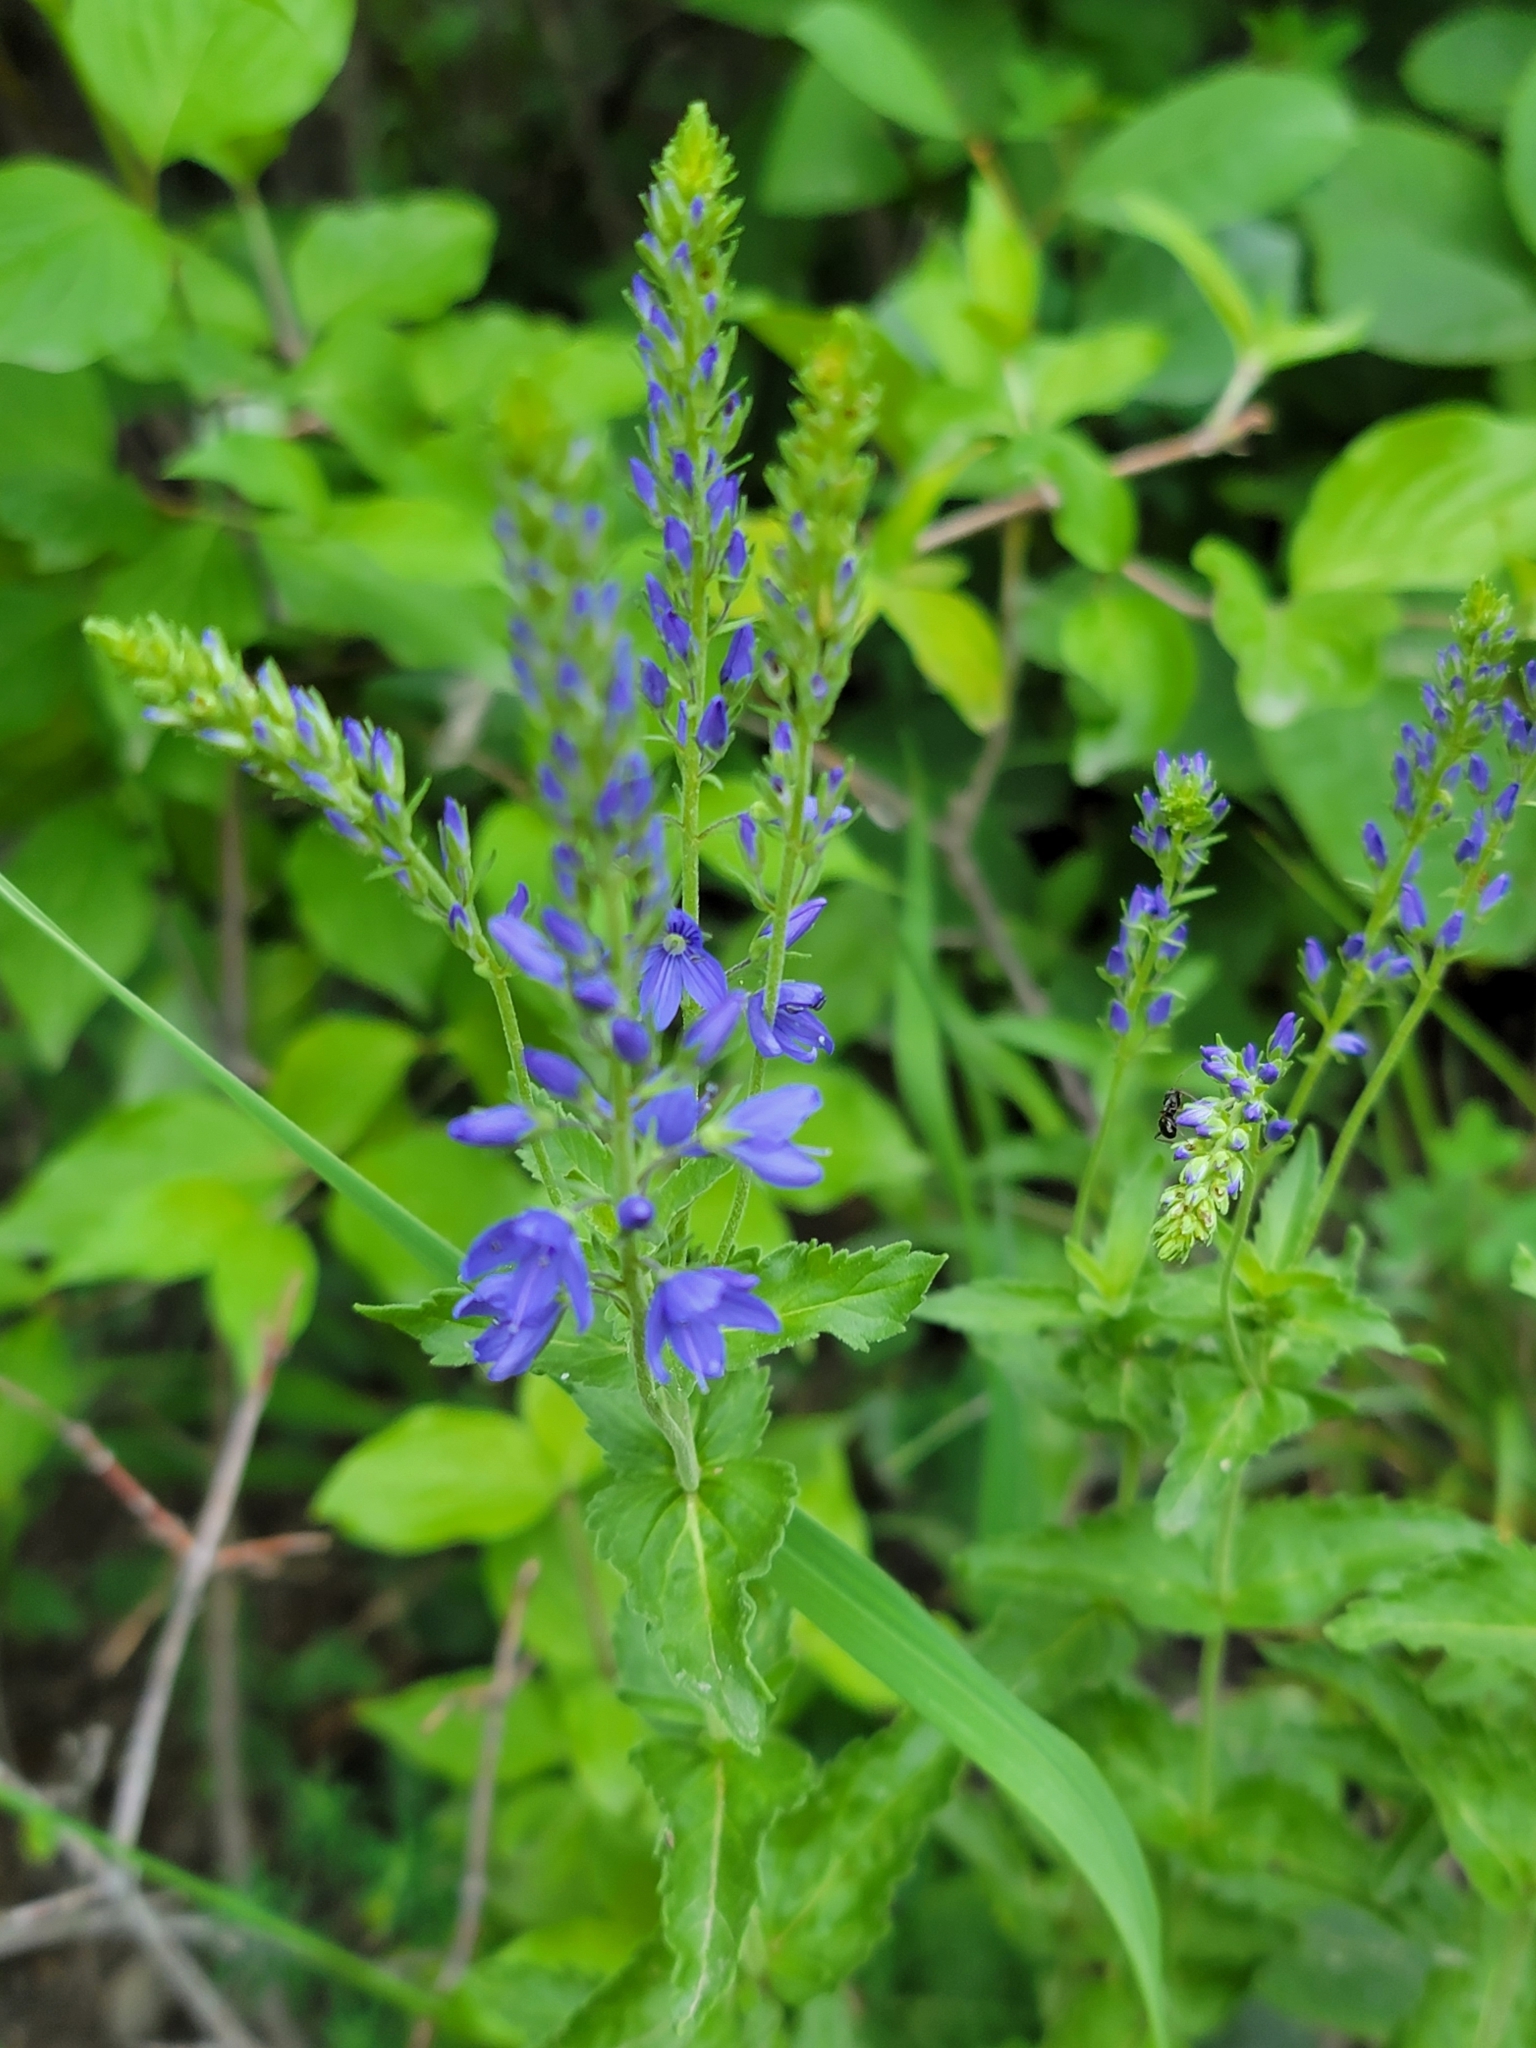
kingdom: Plantae
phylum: Tracheophyta
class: Magnoliopsida
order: Lamiales
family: Plantaginaceae
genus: Veronica
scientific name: Veronica teucrium
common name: Large speedwell
